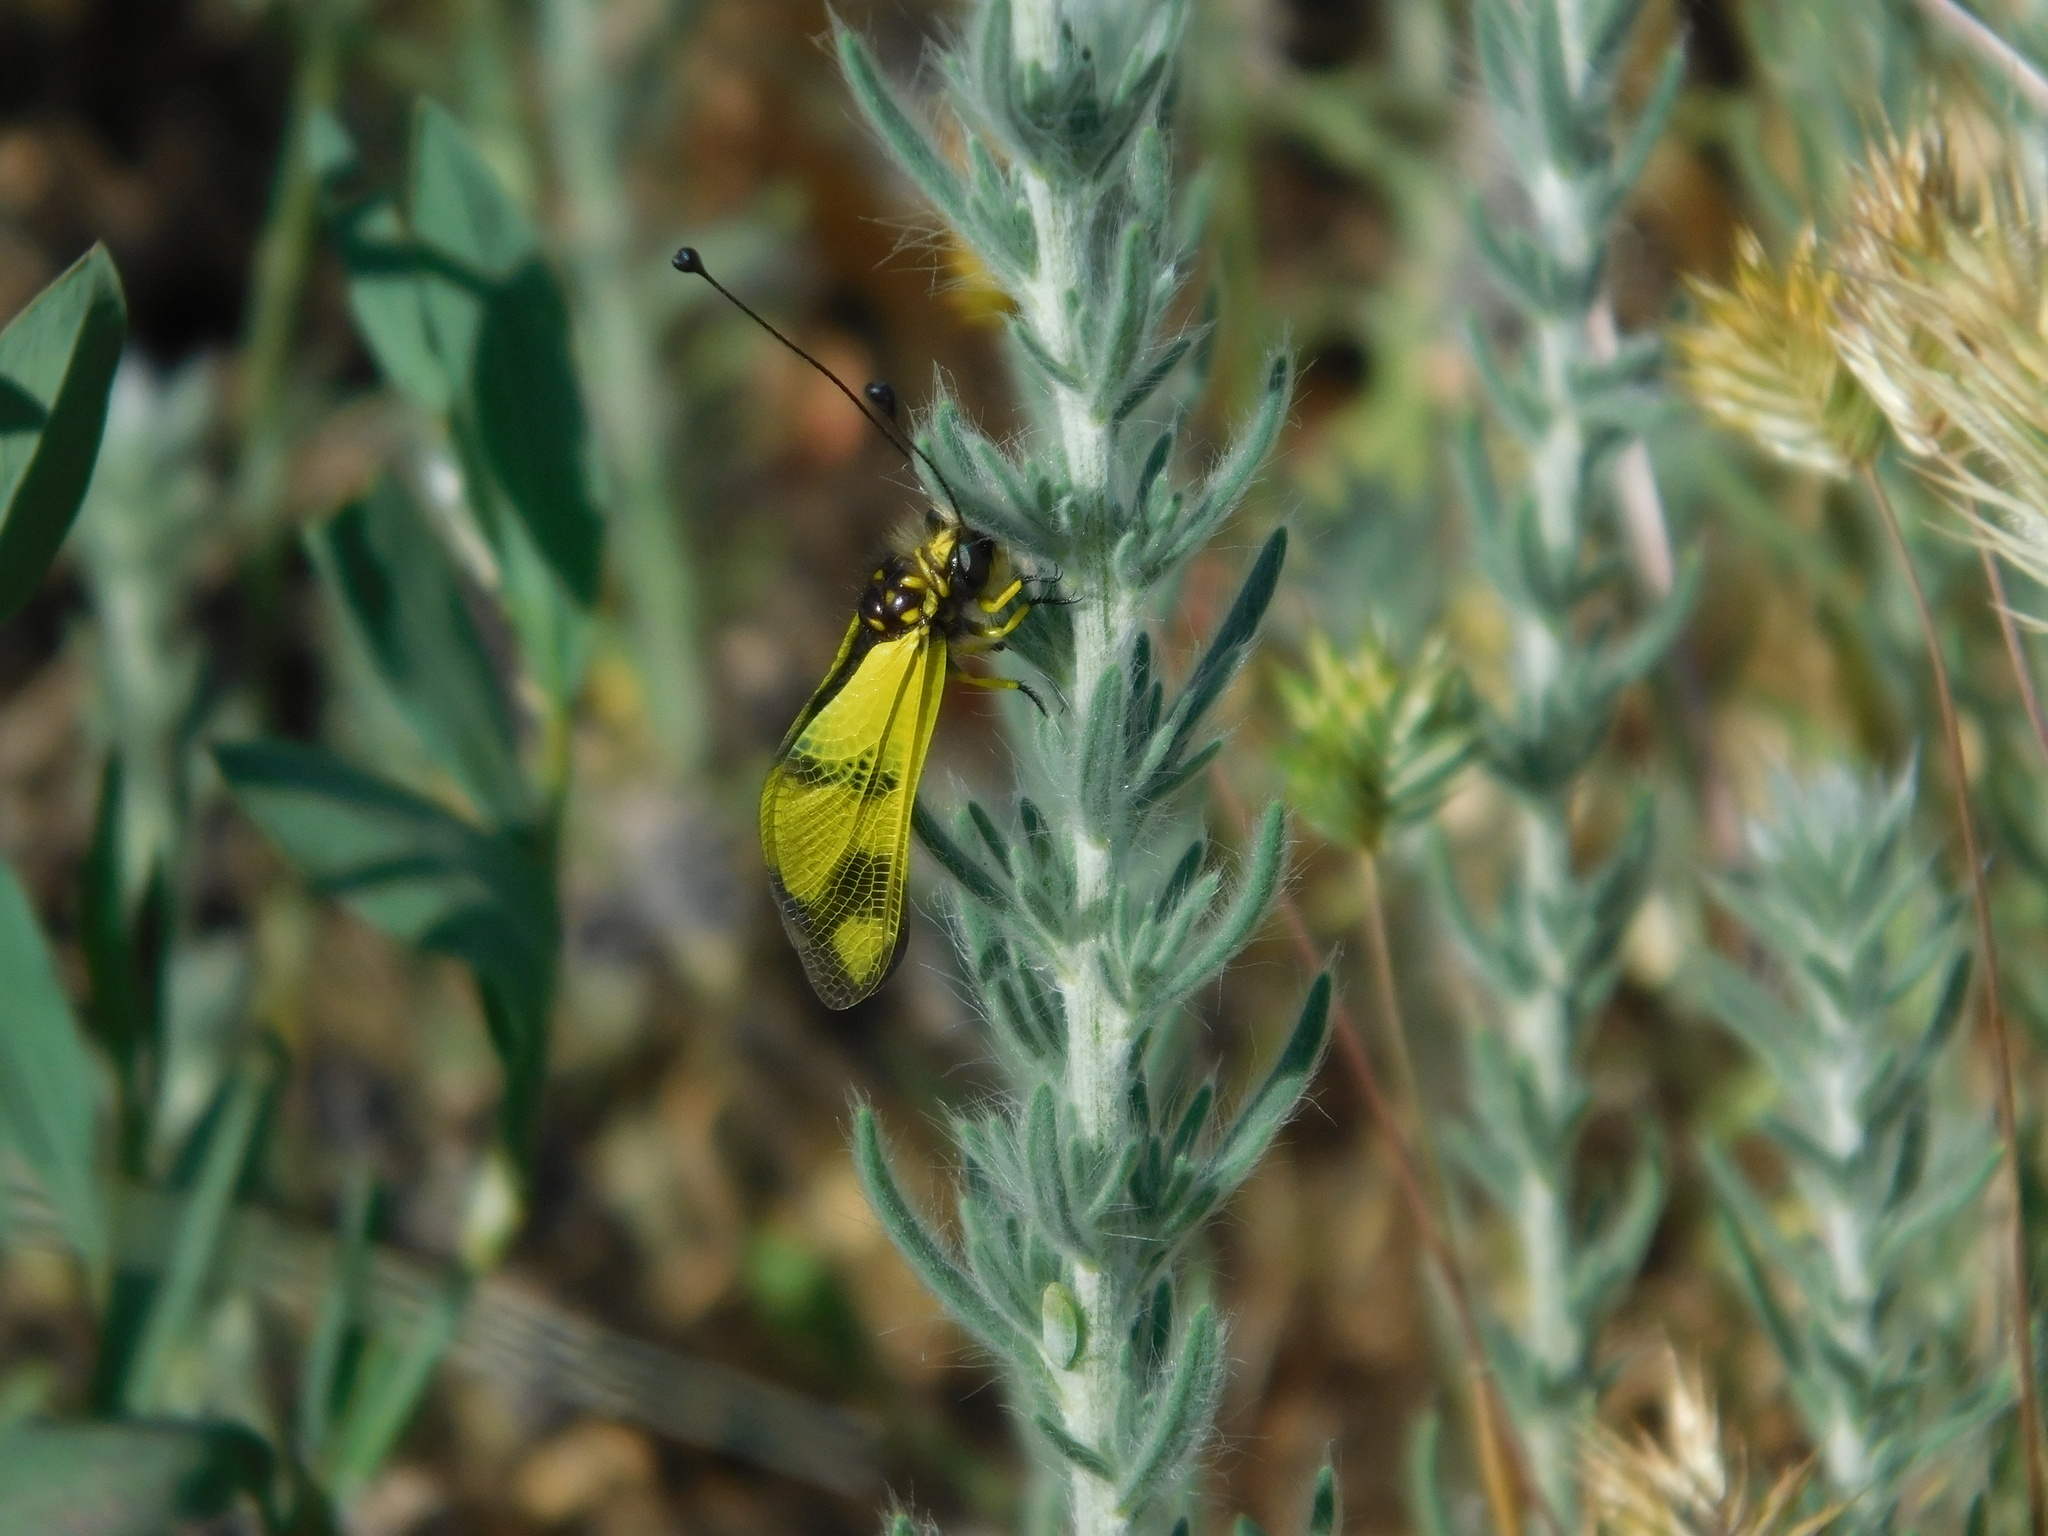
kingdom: Animalia
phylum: Arthropoda
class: Insecta
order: Neuroptera
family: Ascalaphidae
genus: Libelloides
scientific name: Libelloides macaronius
